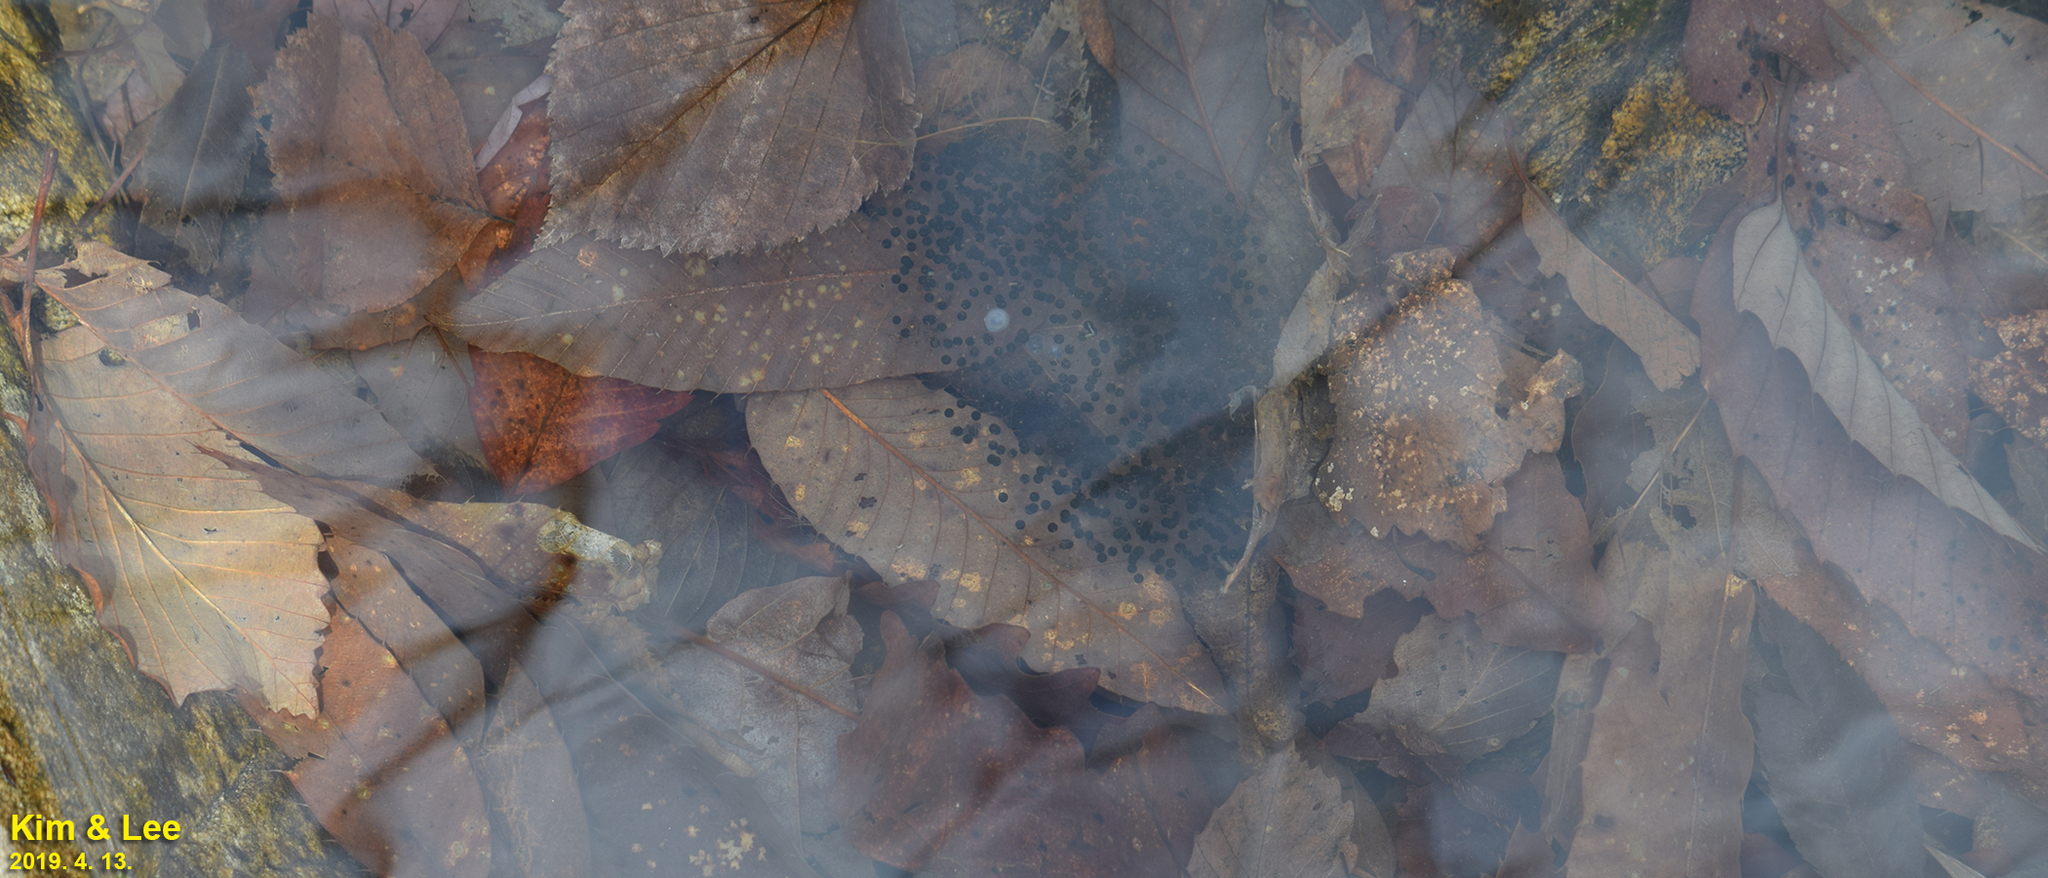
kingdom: Animalia
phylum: Chordata
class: Amphibia
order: Anura
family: Ranidae
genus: Rana
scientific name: Rana huanrenensis
